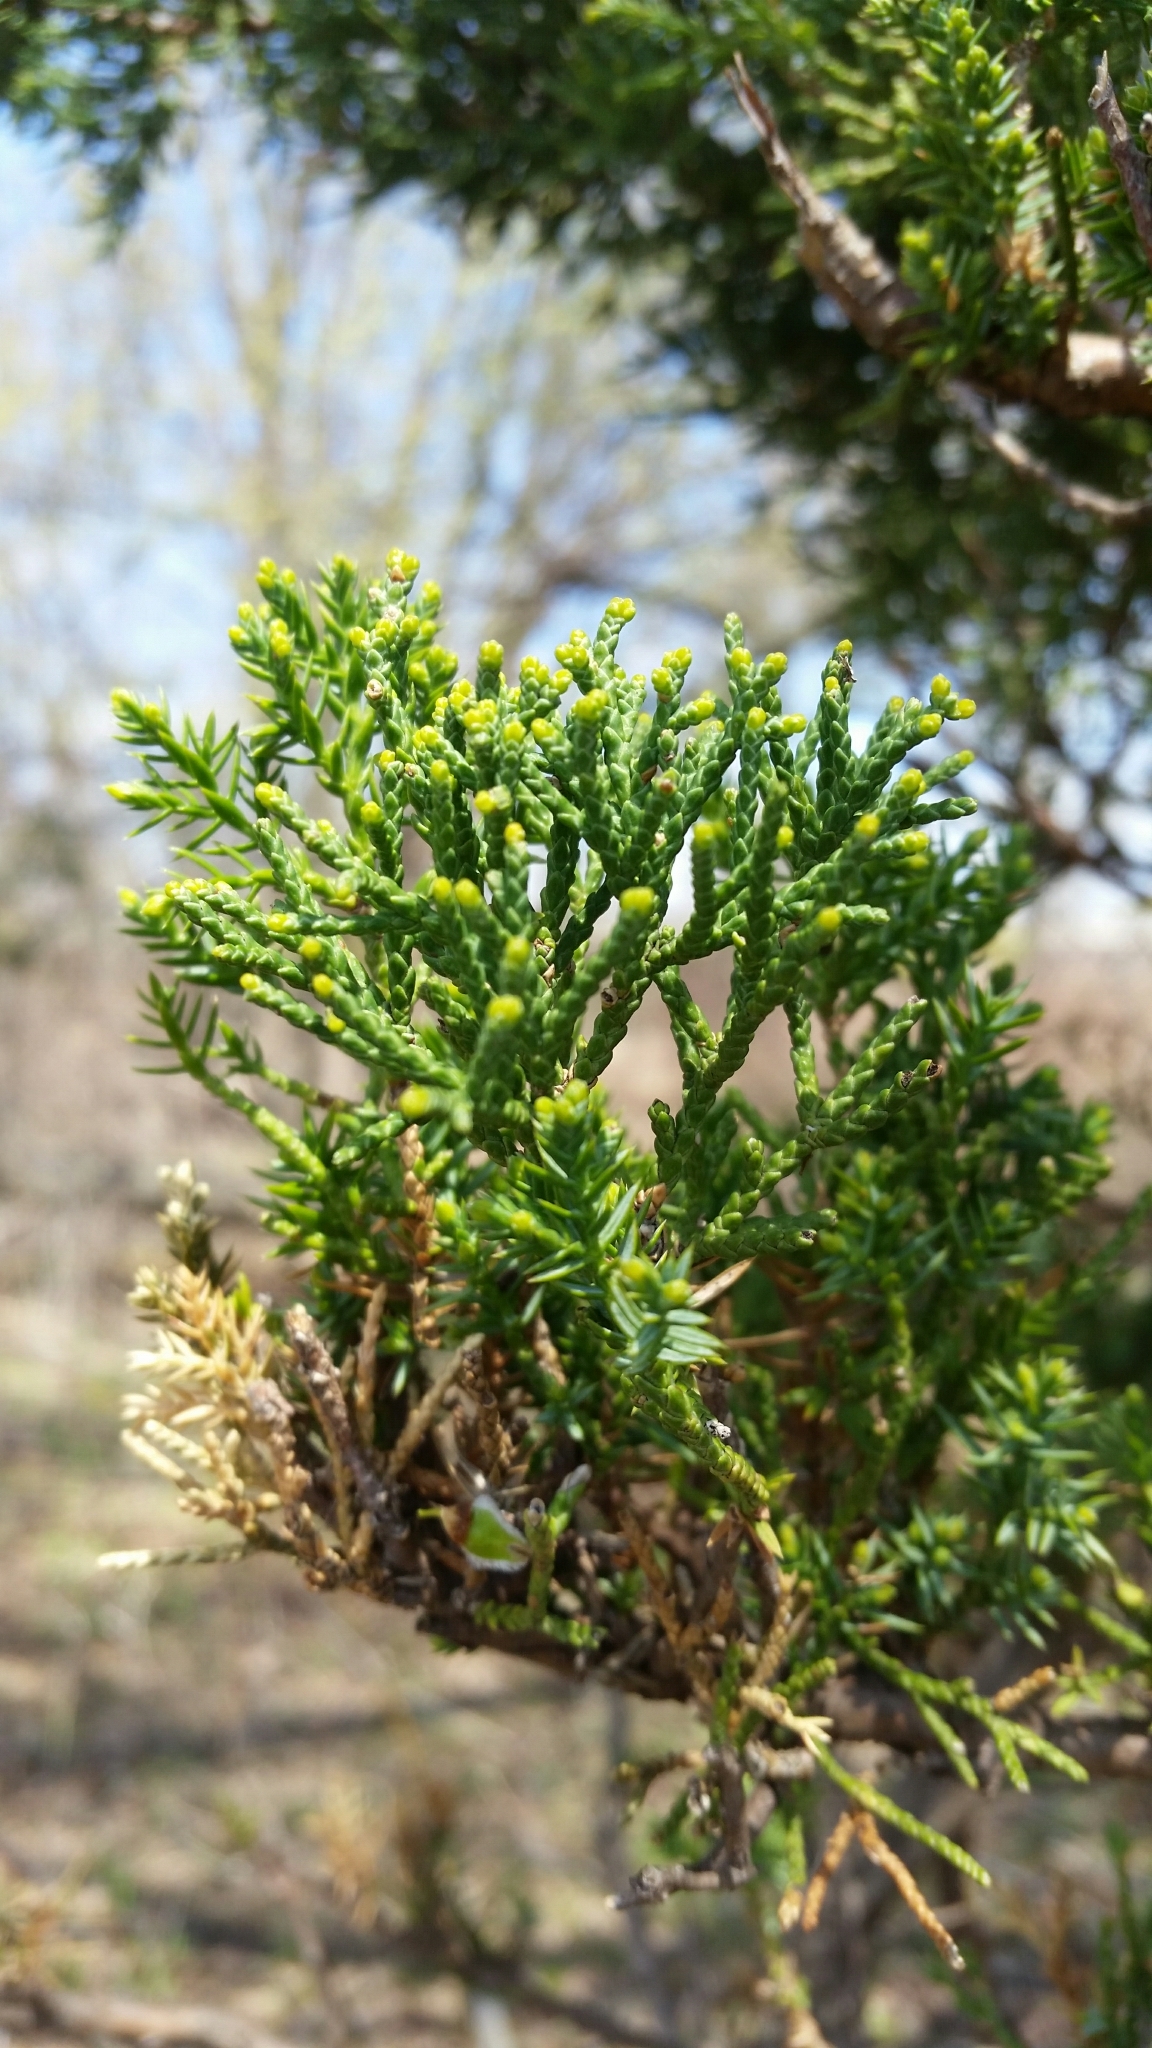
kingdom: Plantae
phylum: Tracheophyta
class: Pinopsida
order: Pinales
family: Cupressaceae
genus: Juniperus
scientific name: Juniperus virginiana
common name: Red juniper
